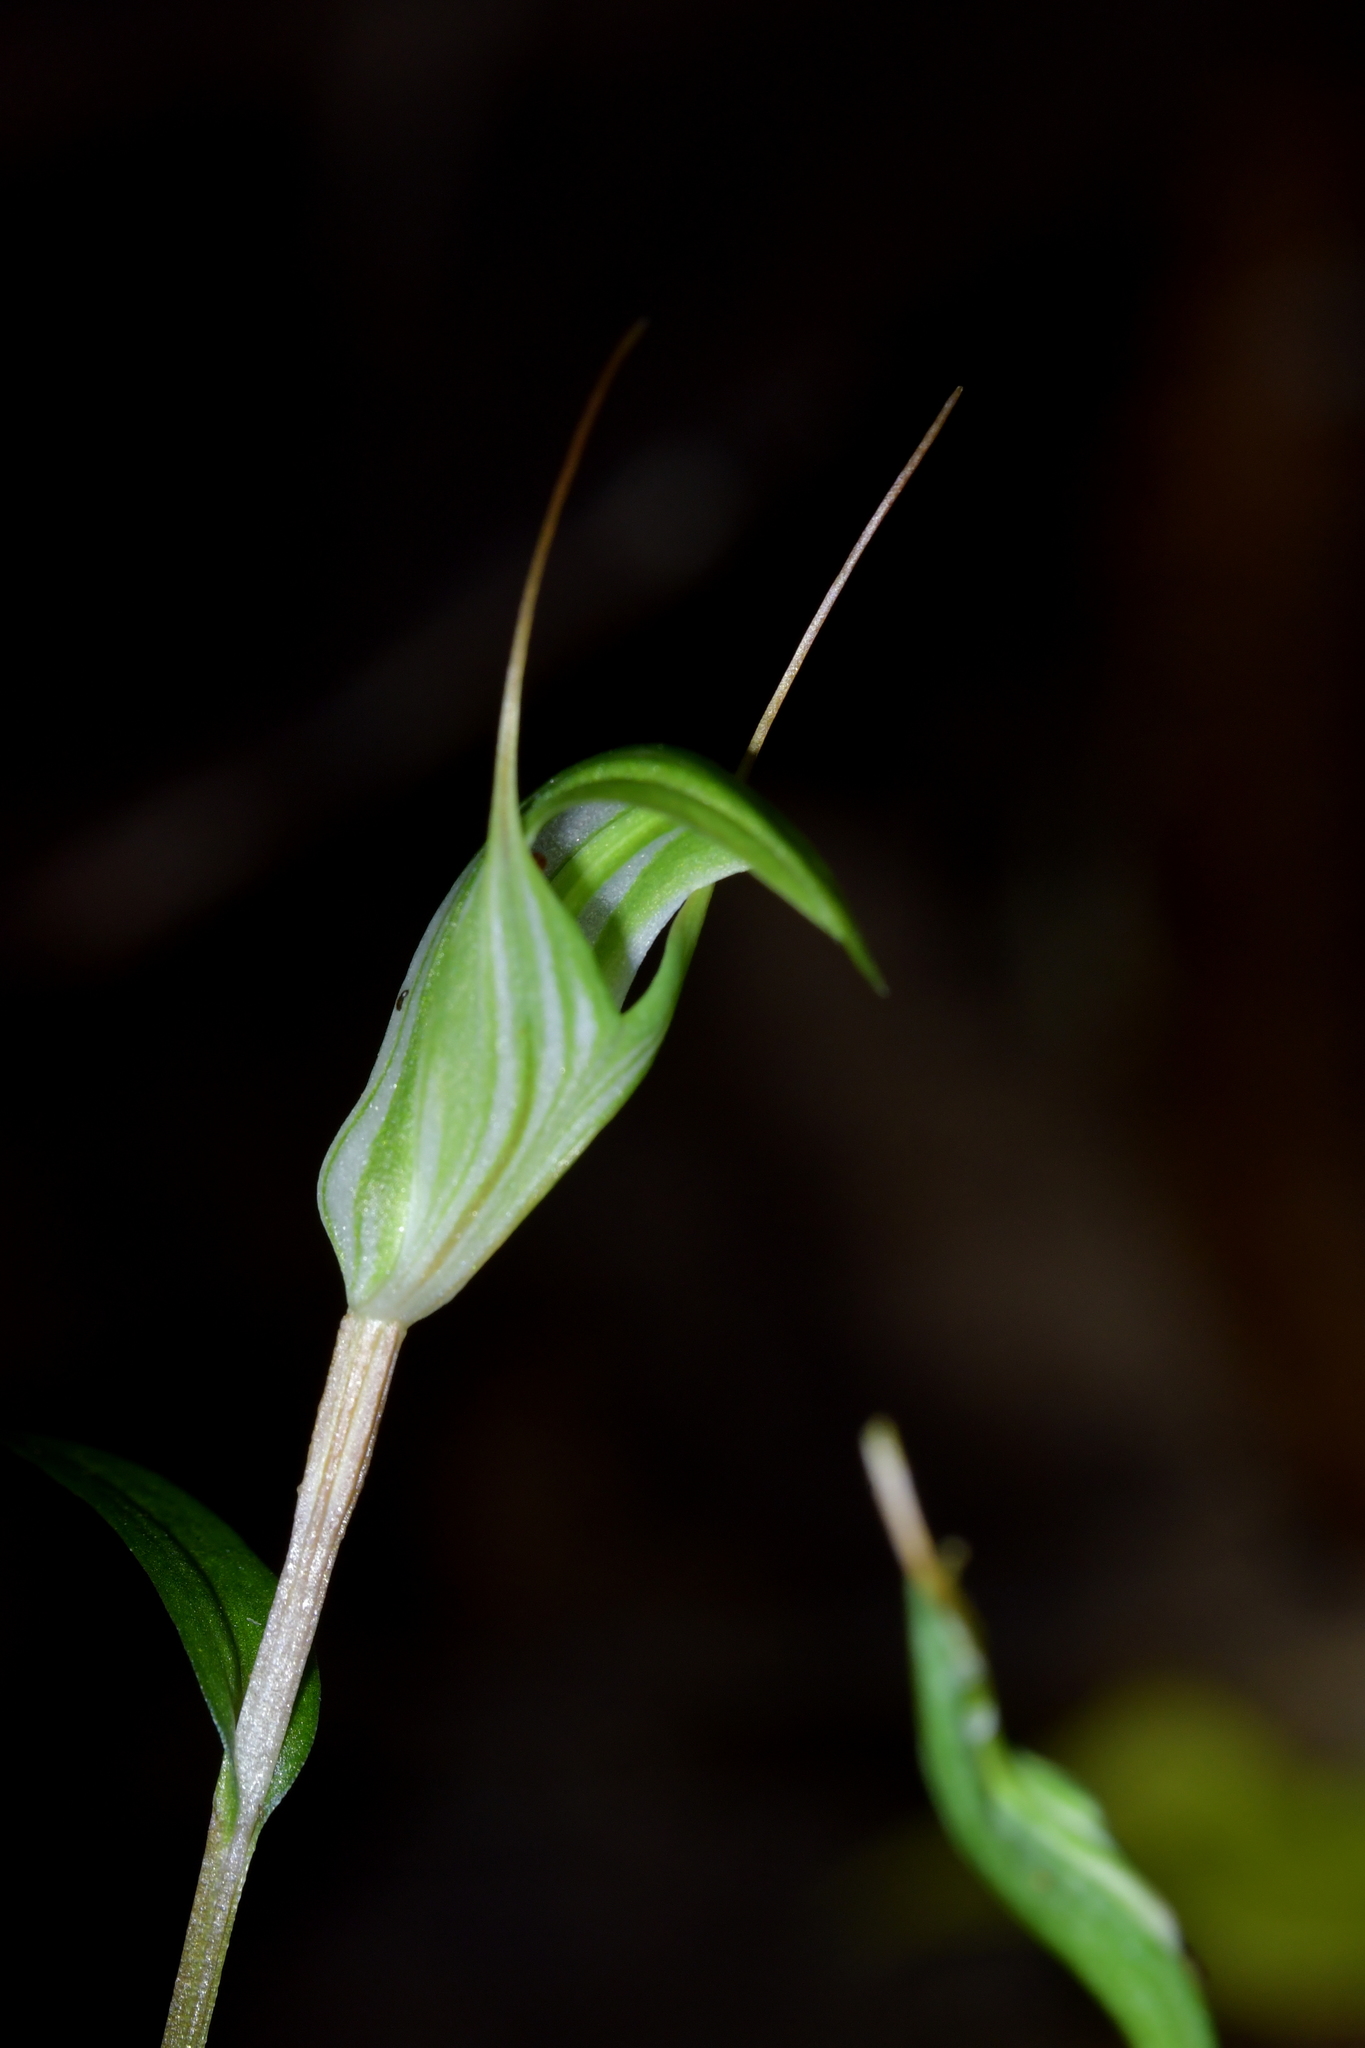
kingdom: Plantae
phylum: Tracheophyta
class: Liliopsida
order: Asparagales
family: Orchidaceae
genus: Pterostylis
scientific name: Pterostylis alobula
